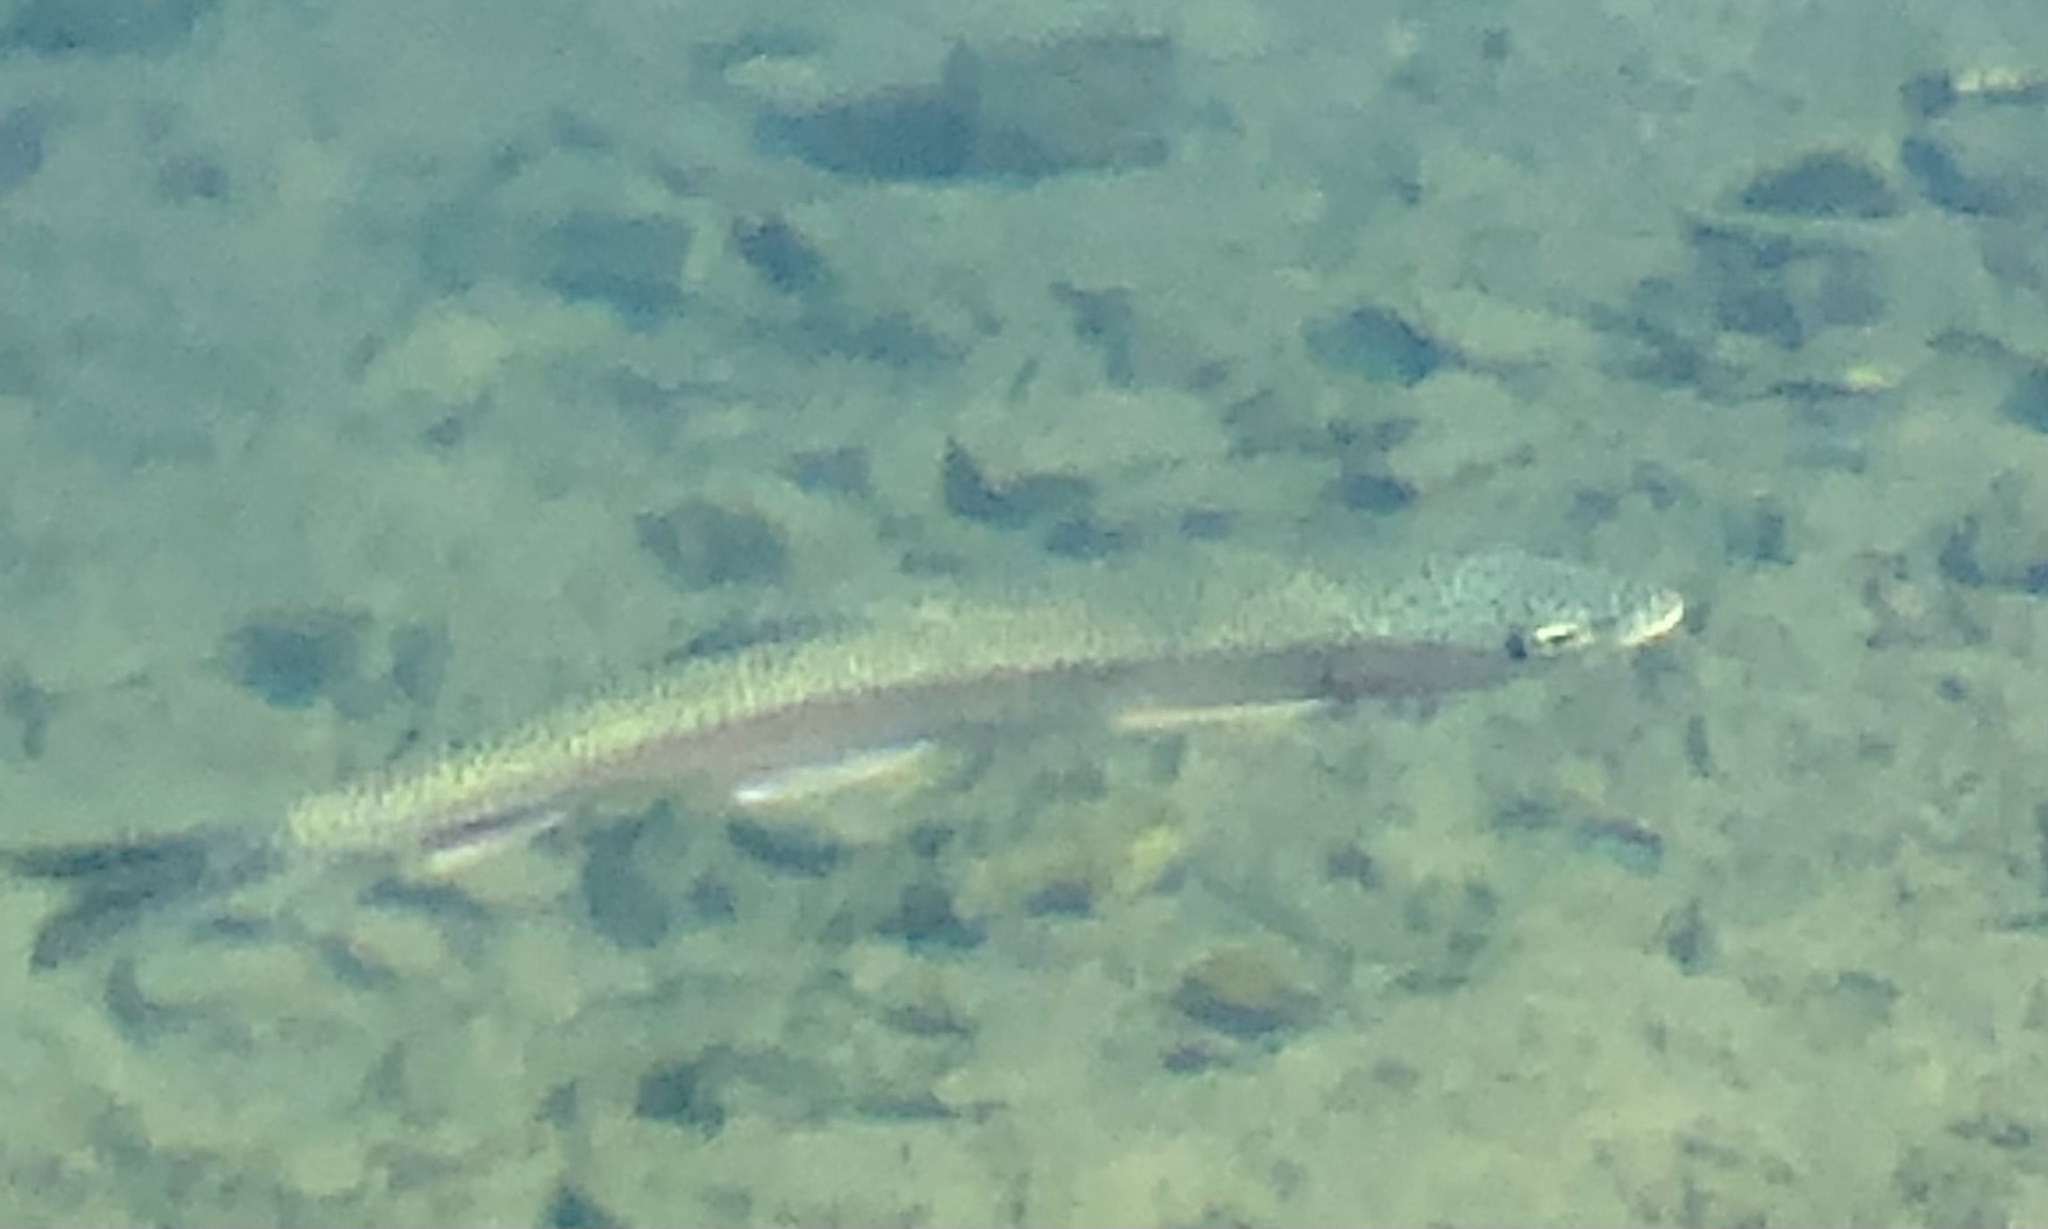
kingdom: Animalia
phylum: Chordata
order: Salmoniformes
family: Salmonidae
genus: Oncorhynchus
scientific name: Oncorhynchus mykiss
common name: Rainbow trout
